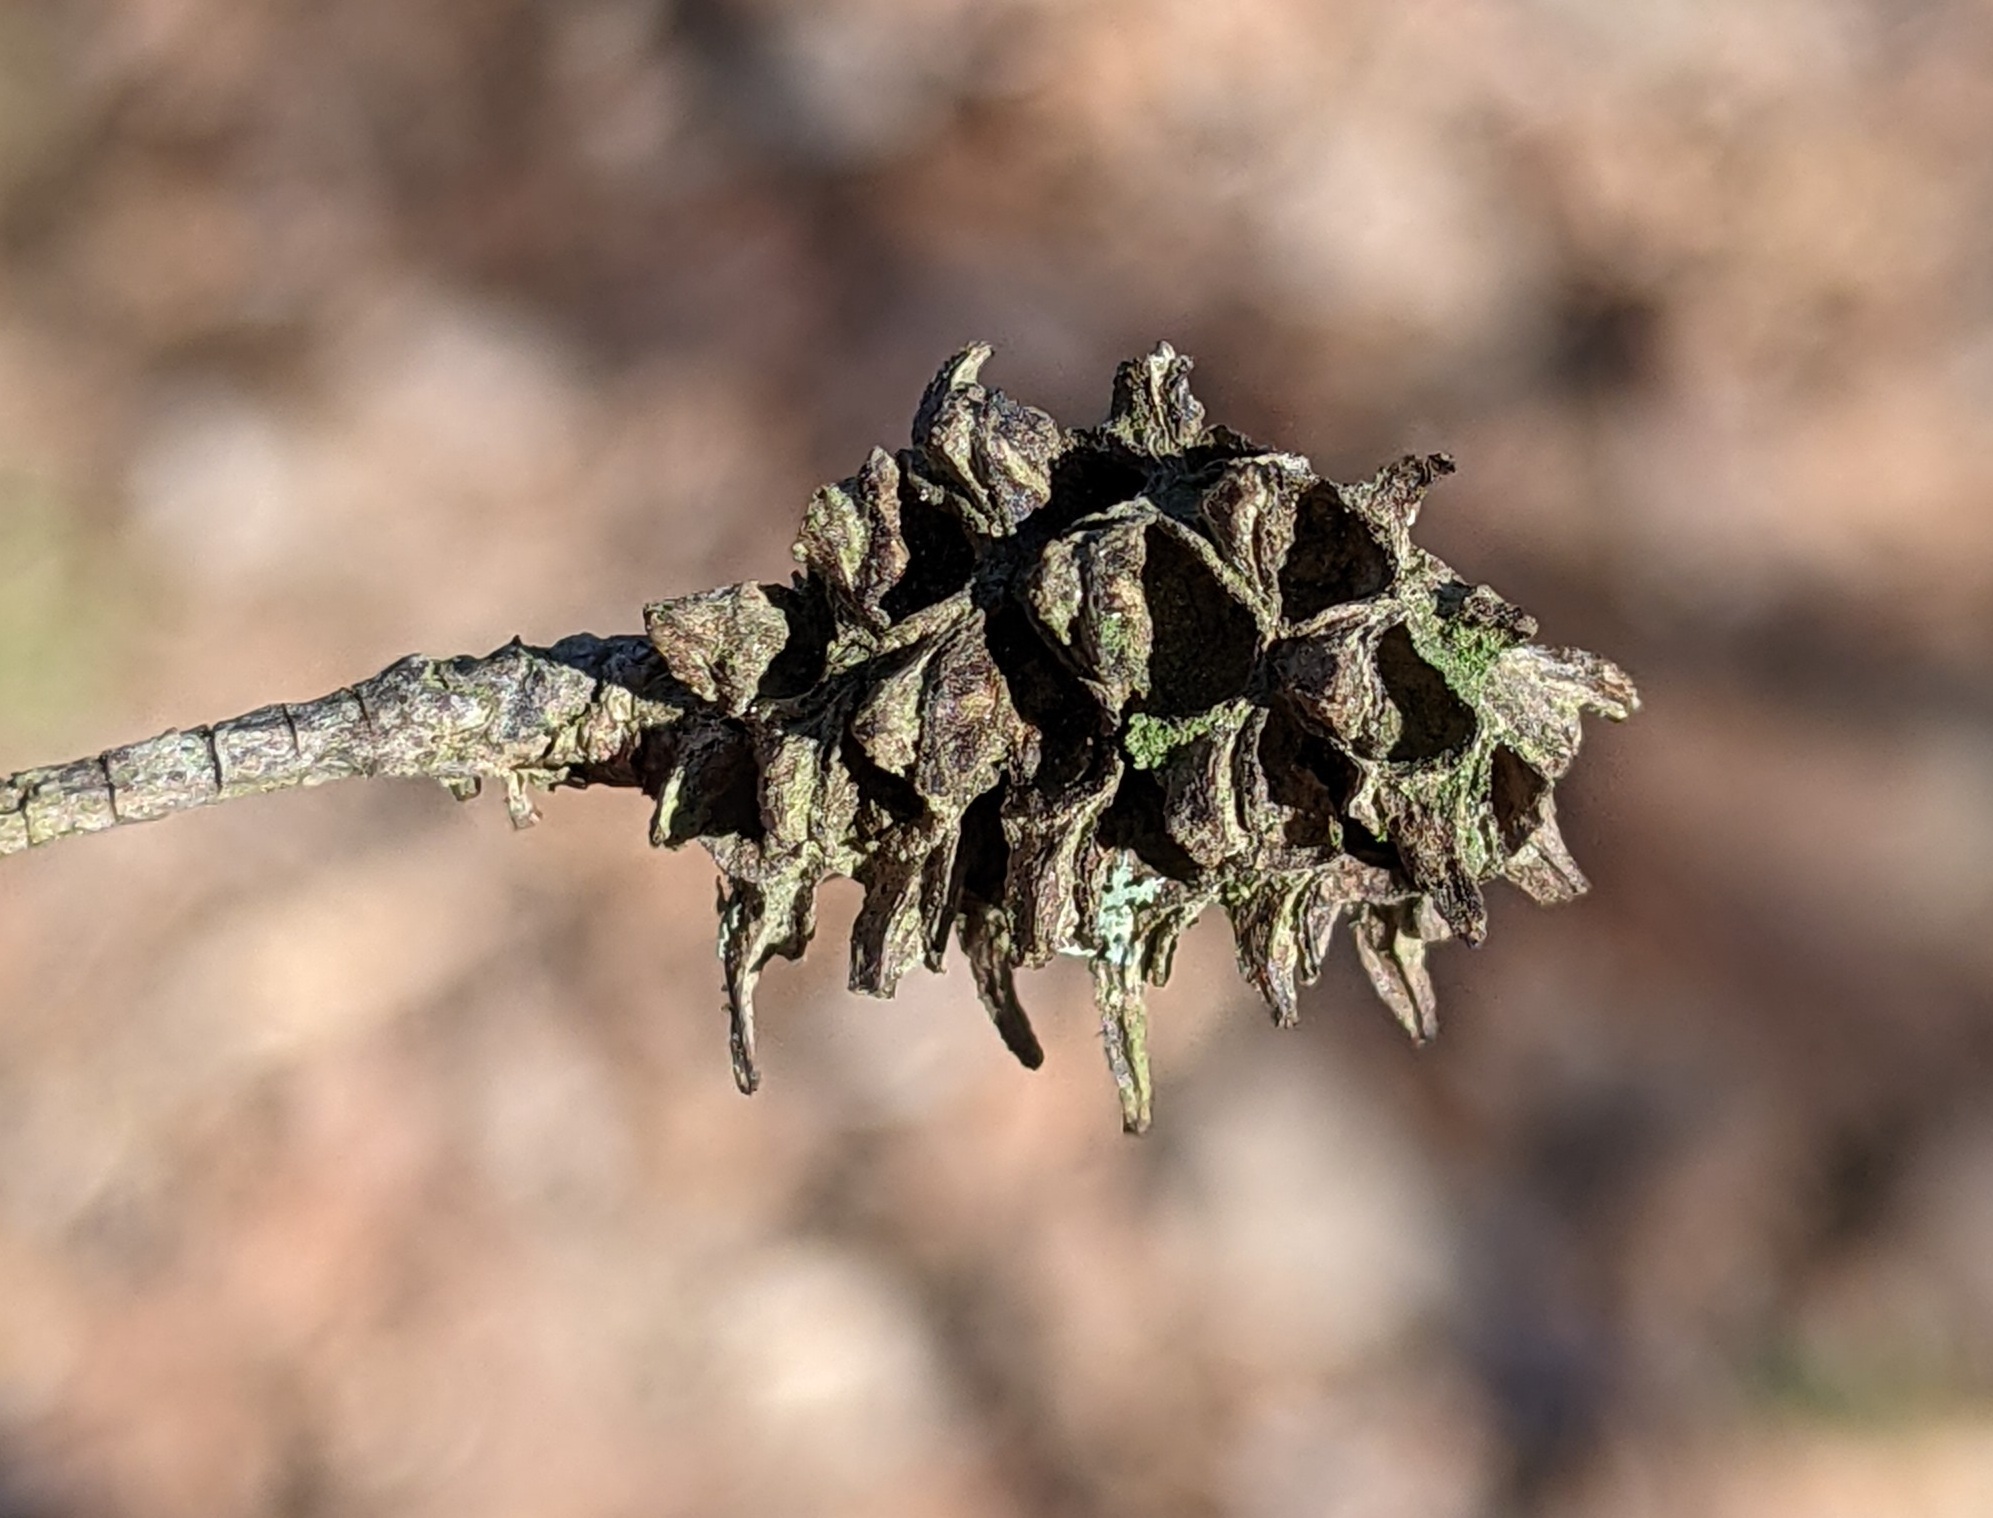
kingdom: Animalia
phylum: Arthropoda
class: Insecta
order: Hemiptera
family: Adelgidae
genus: Adelges
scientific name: Adelges abietis
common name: Eastern spruce gall adelgid
